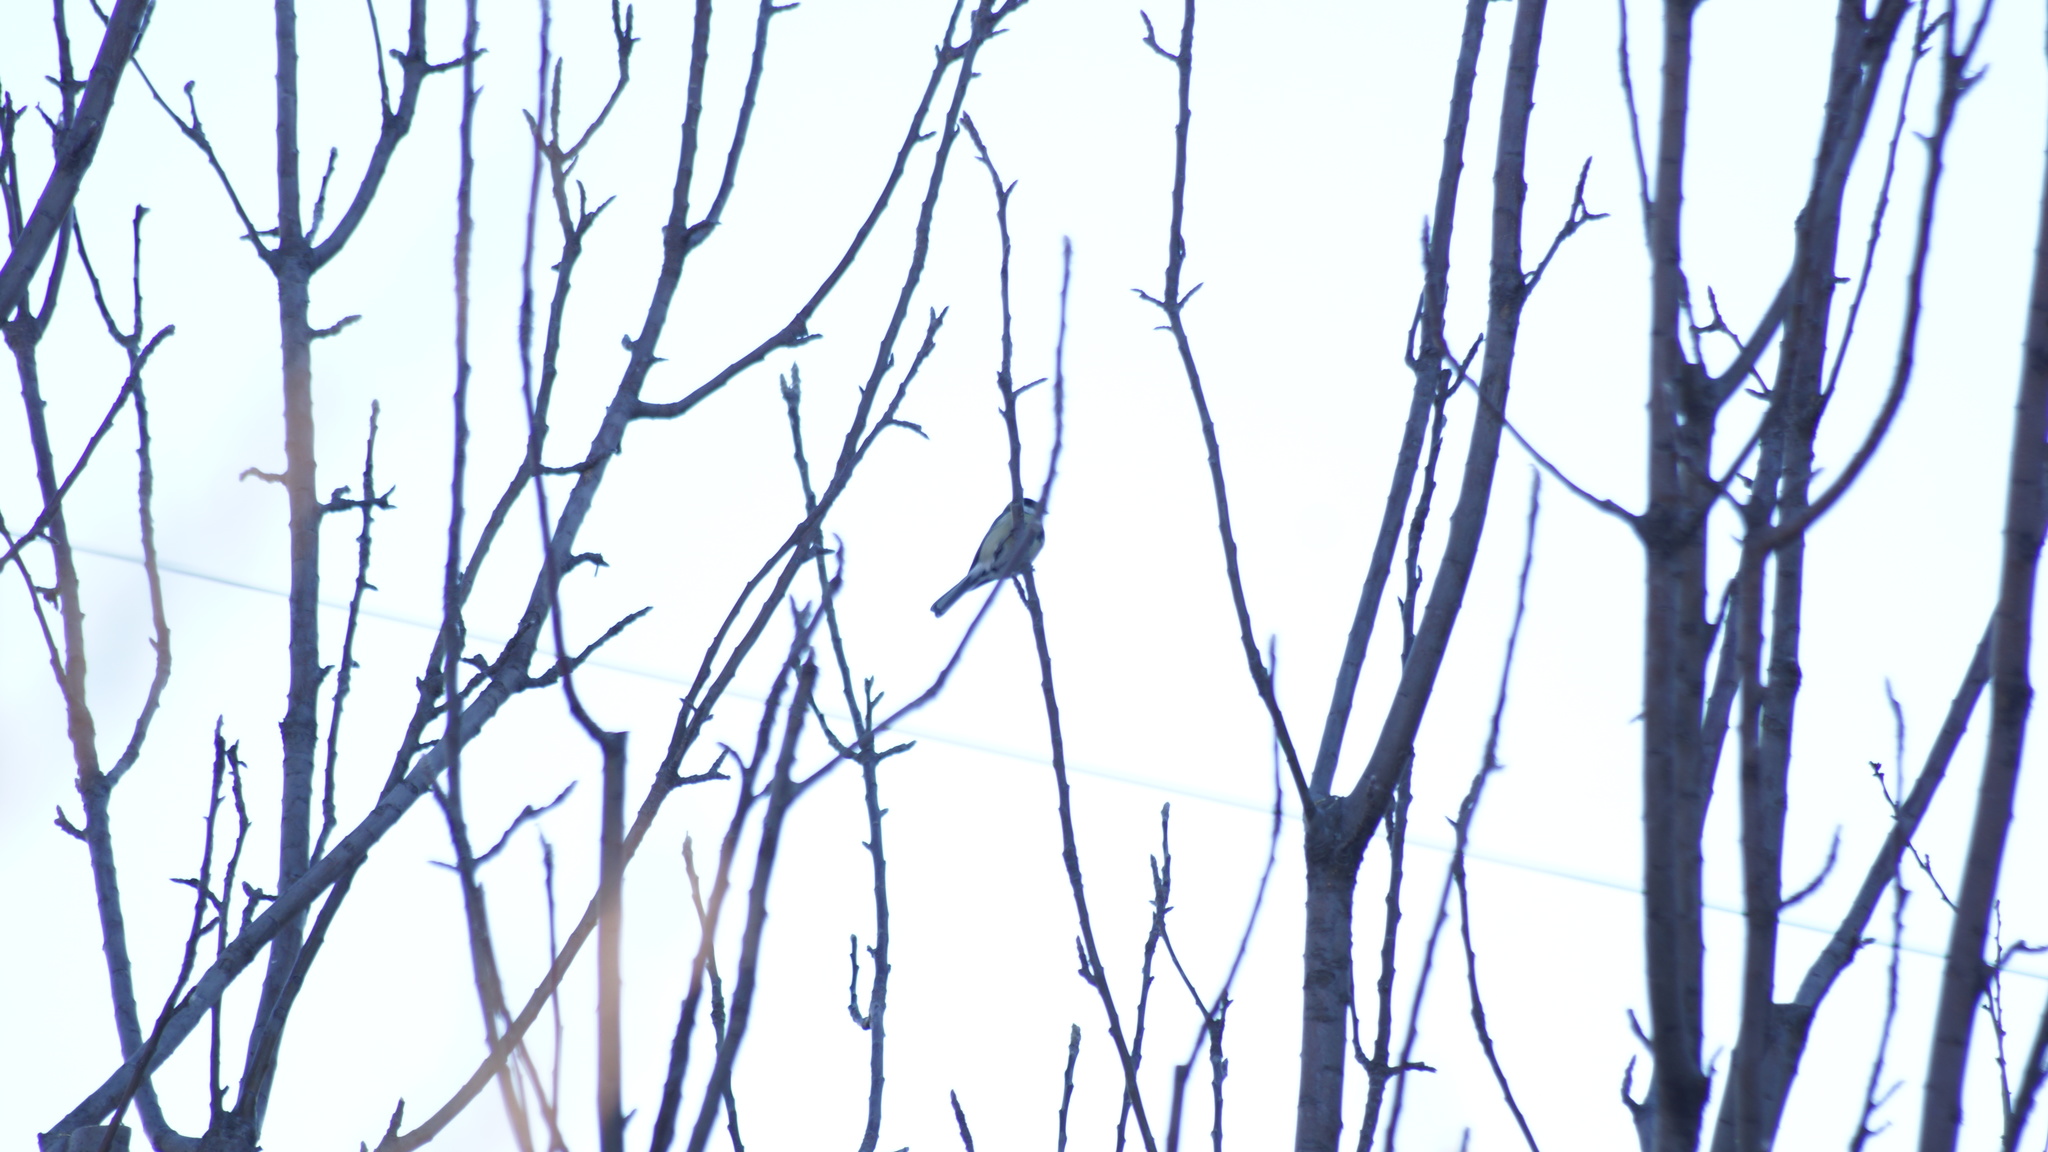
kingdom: Animalia
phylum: Chordata
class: Aves
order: Passeriformes
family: Paridae
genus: Parus
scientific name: Parus major
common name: Great tit
